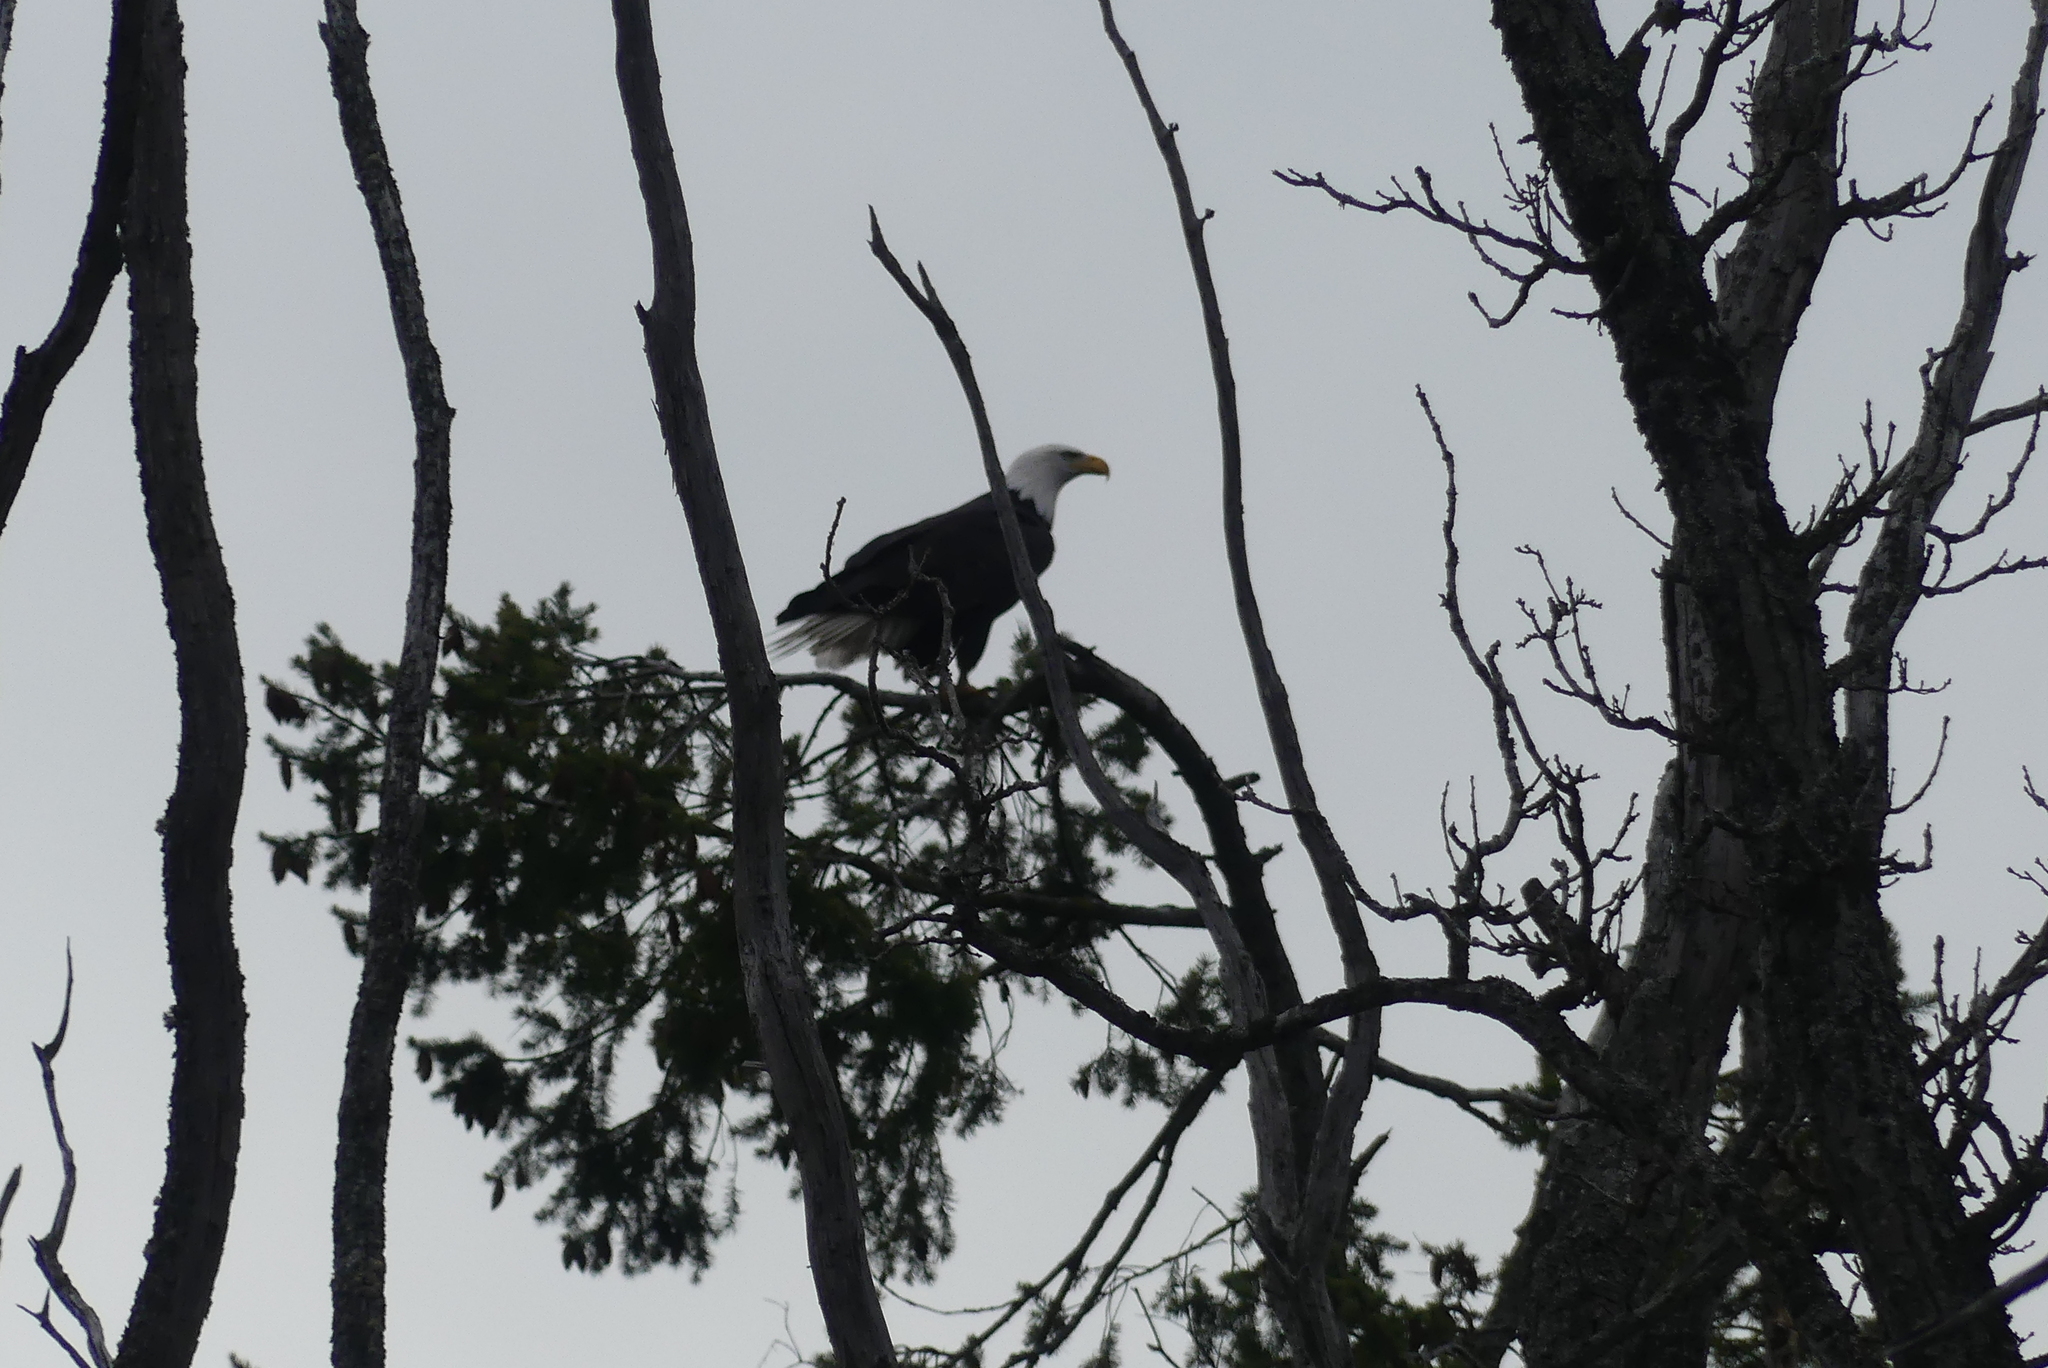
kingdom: Animalia
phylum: Chordata
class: Aves
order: Accipitriformes
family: Accipitridae
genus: Haliaeetus
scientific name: Haliaeetus leucocephalus
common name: Bald eagle
